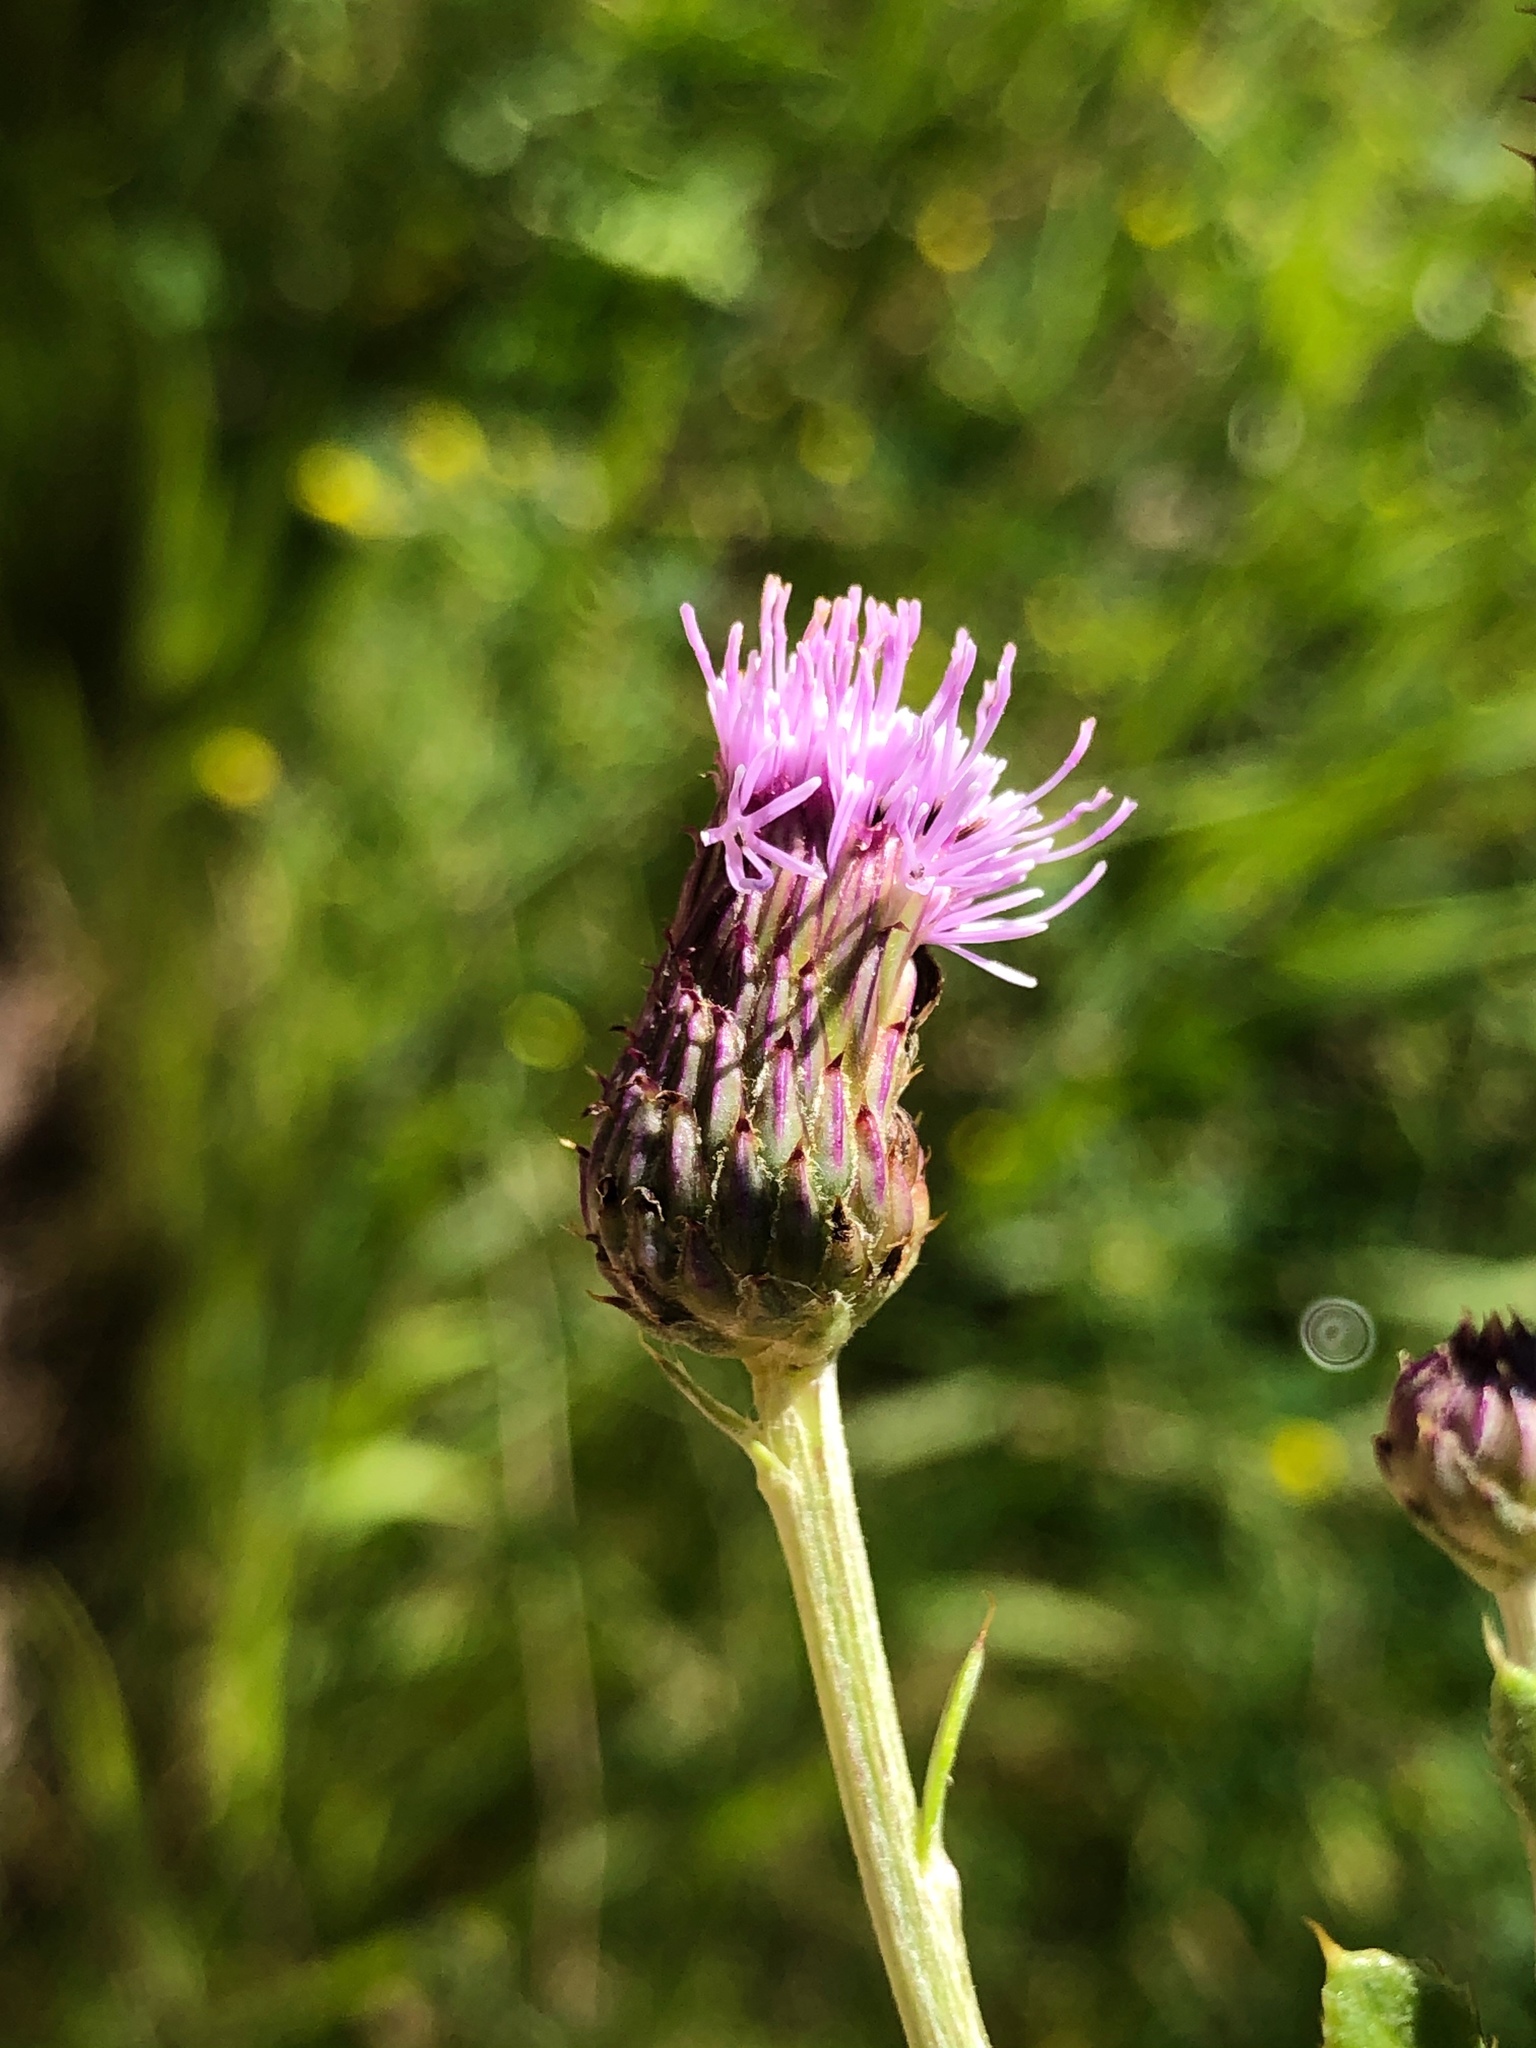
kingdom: Plantae
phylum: Tracheophyta
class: Magnoliopsida
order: Asterales
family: Asteraceae
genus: Cirsium
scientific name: Cirsium arvense
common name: Creeping thistle
